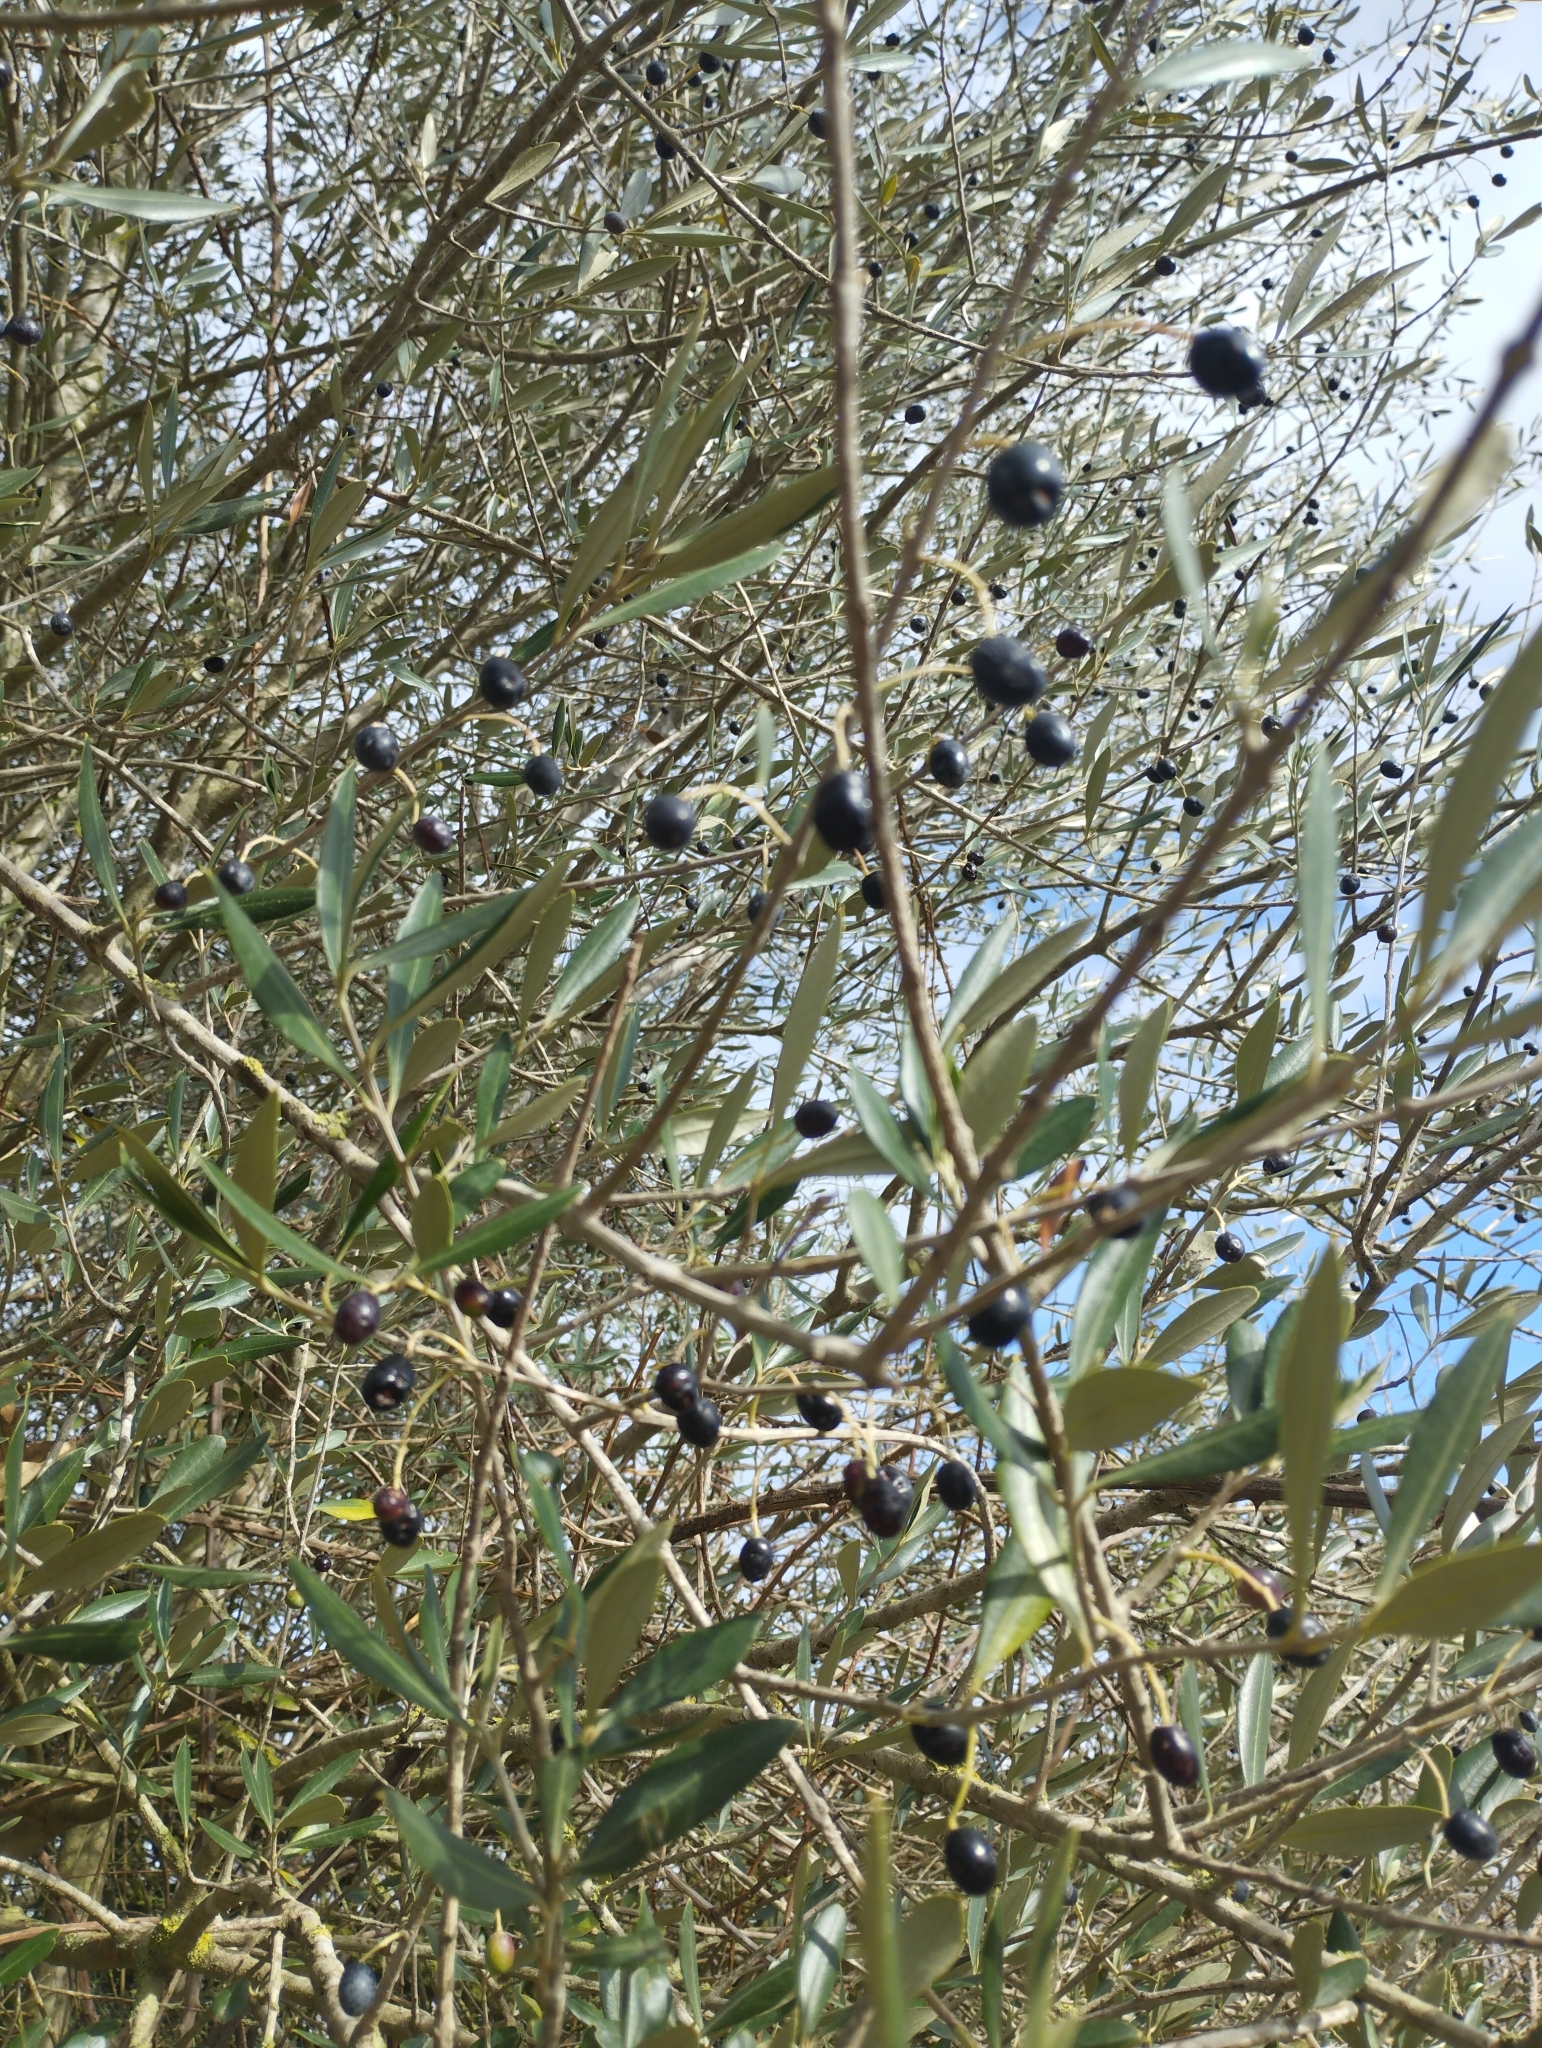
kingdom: Plantae
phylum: Tracheophyta
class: Magnoliopsida
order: Lamiales
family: Oleaceae
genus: Olea
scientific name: Olea europaea
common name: Olive
